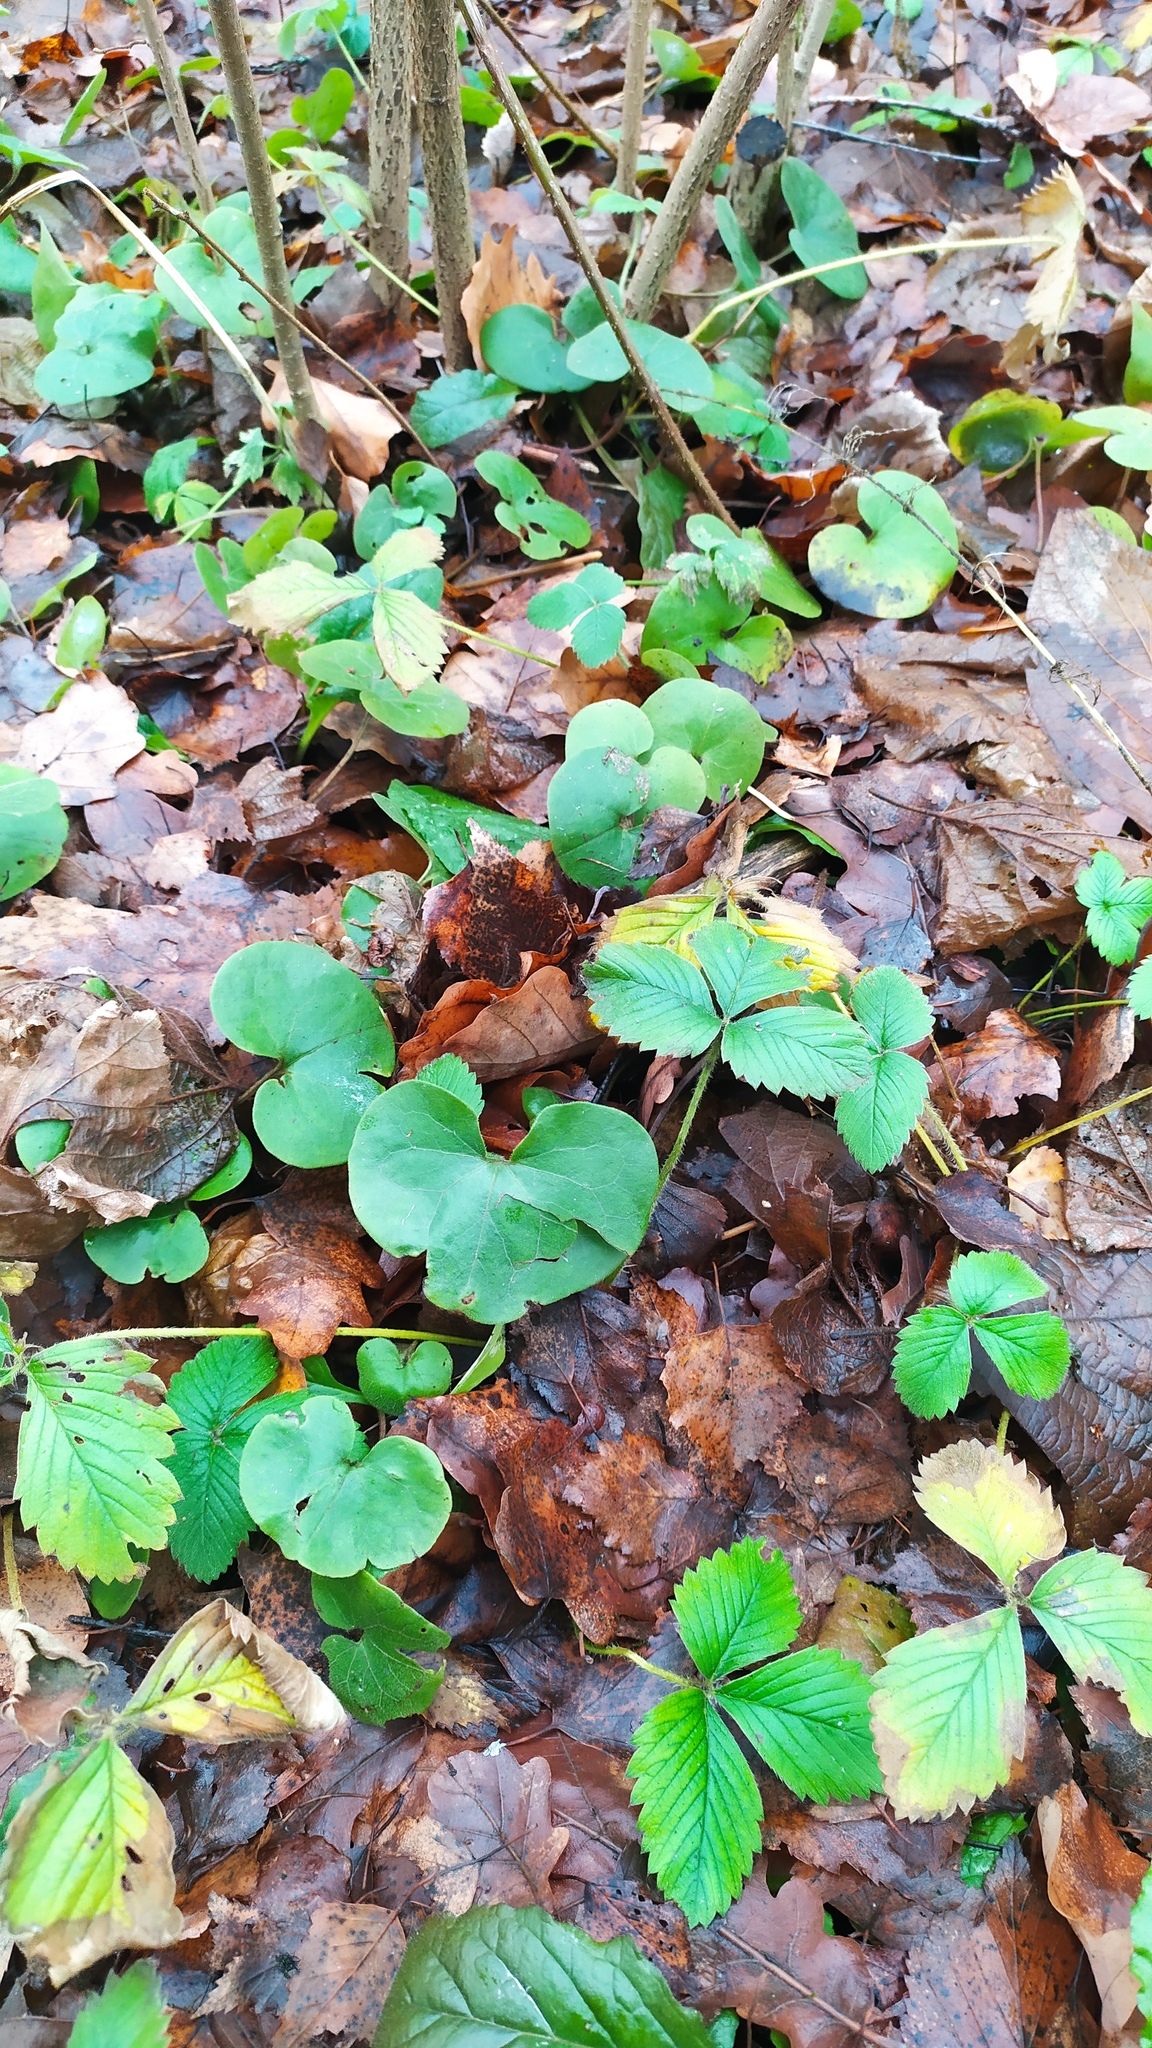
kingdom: Plantae
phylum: Tracheophyta
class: Magnoliopsida
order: Rosales
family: Rosaceae
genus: Fragaria
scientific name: Fragaria moschata
